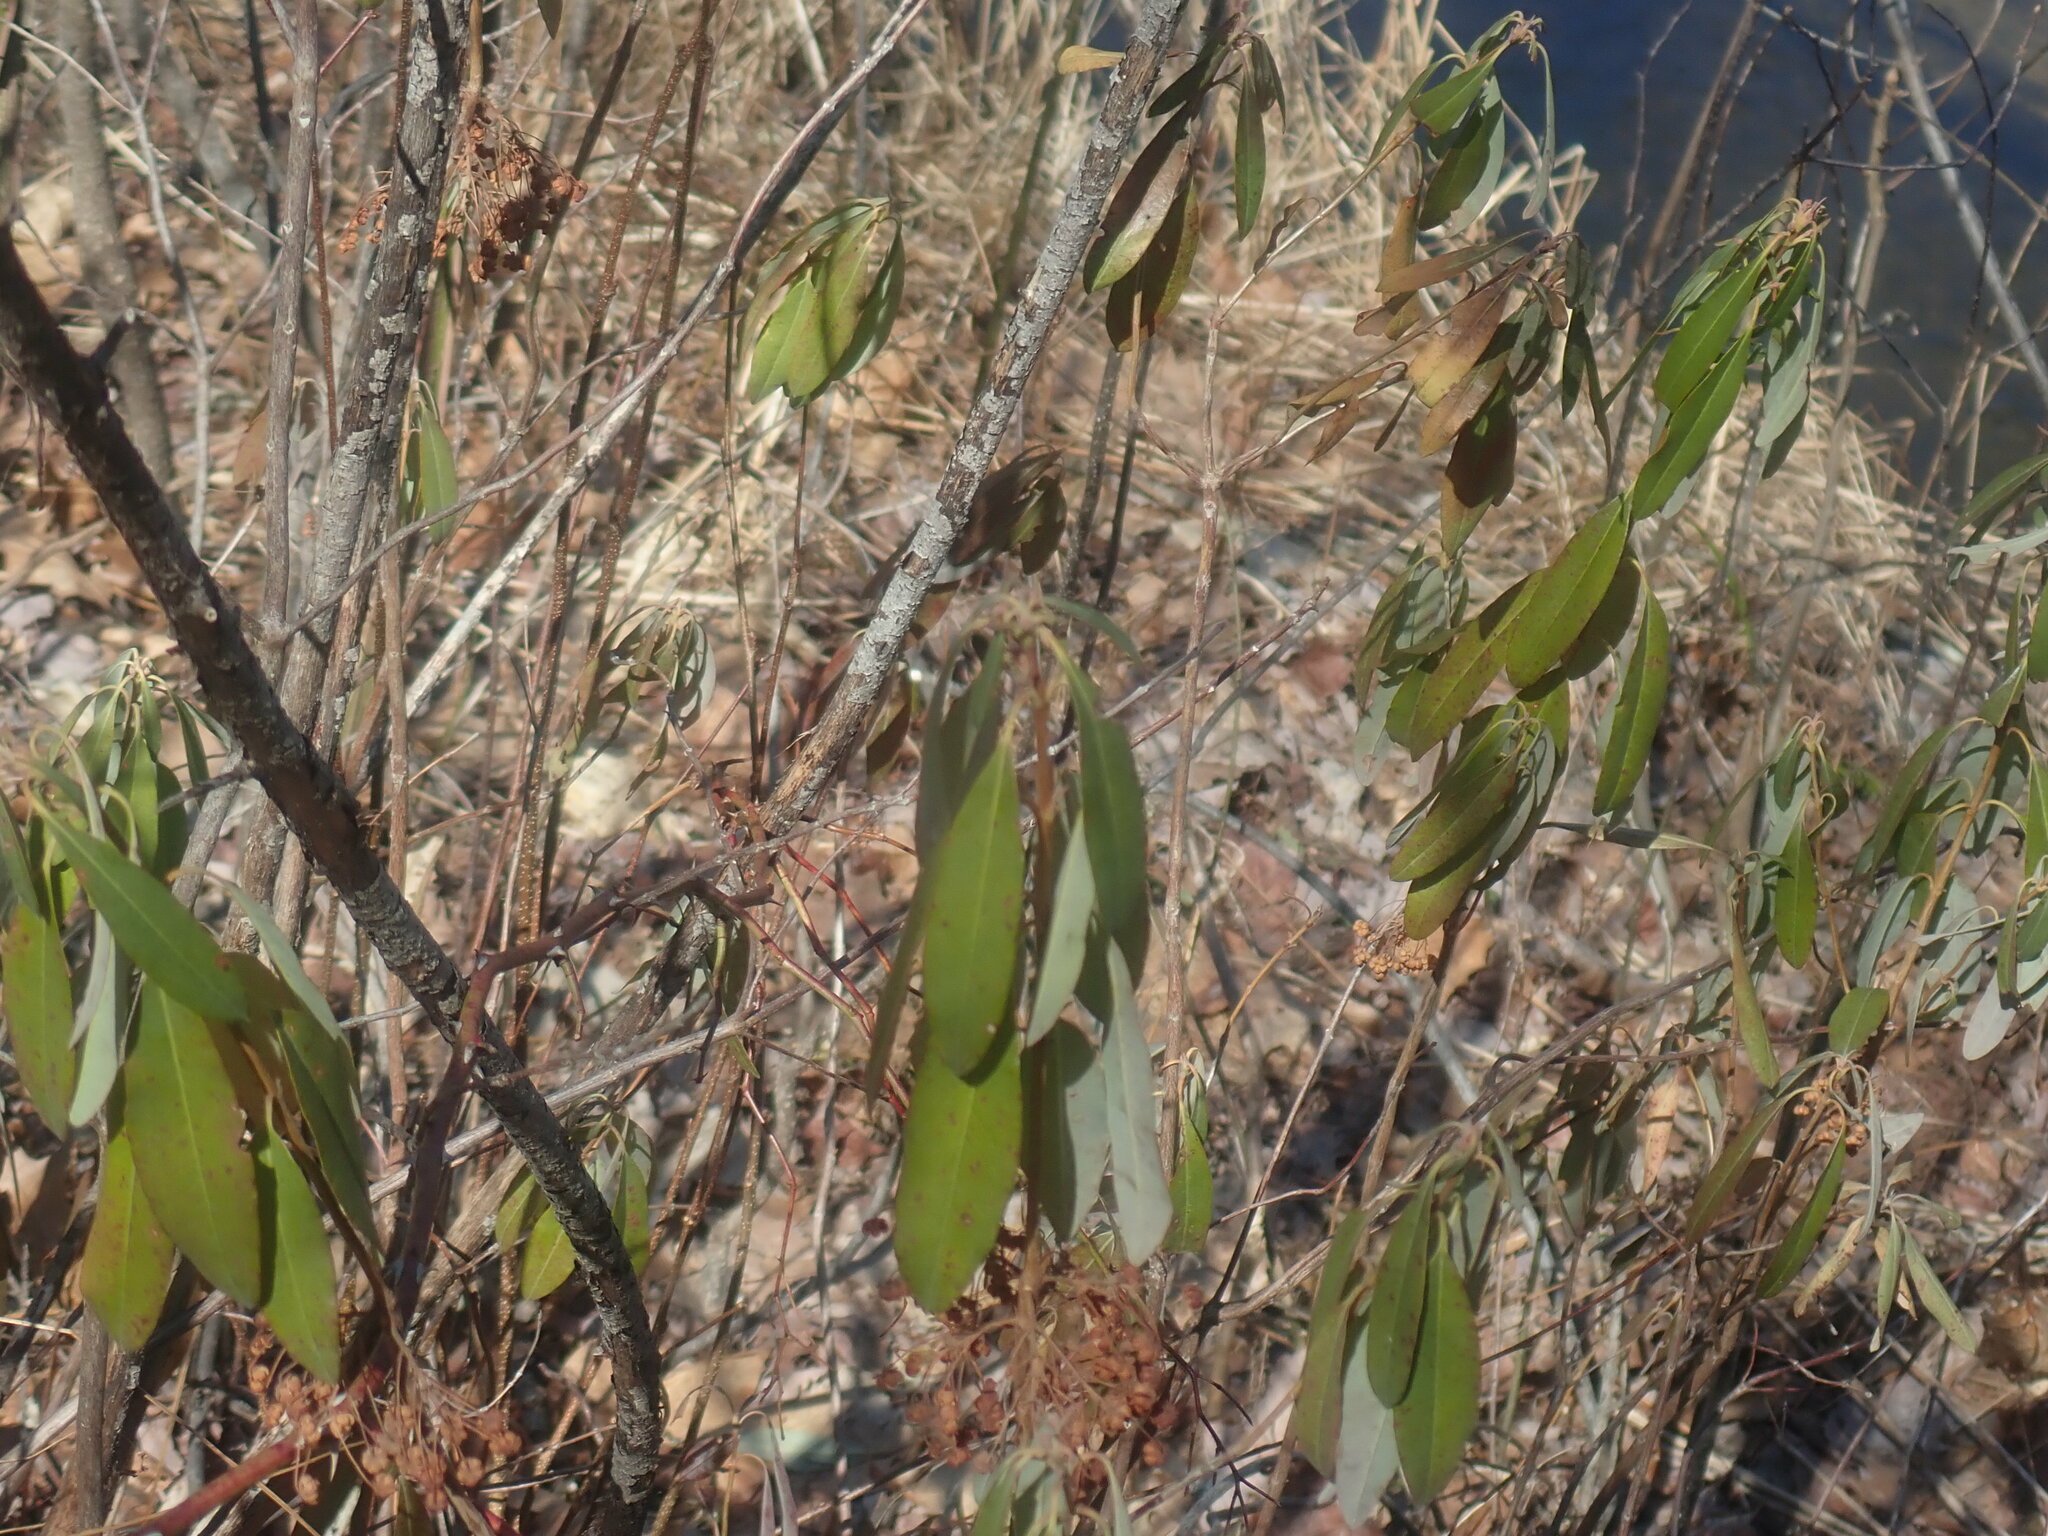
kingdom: Plantae
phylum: Tracheophyta
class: Magnoliopsida
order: Ericales
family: Ericaceae
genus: Kalmia
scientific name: Kalmia angustifolia
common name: Sheep-laurel
